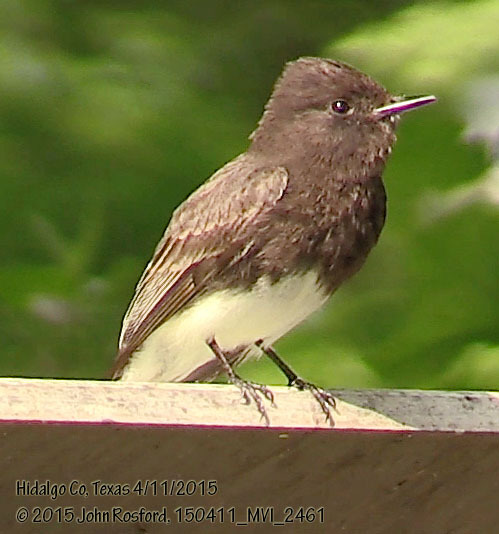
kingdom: Animalia
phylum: Chordata
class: Aves
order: Passeriformes
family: Tyrannidae
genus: Sayornis
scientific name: Sayornis nigricans
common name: Black phoebe
